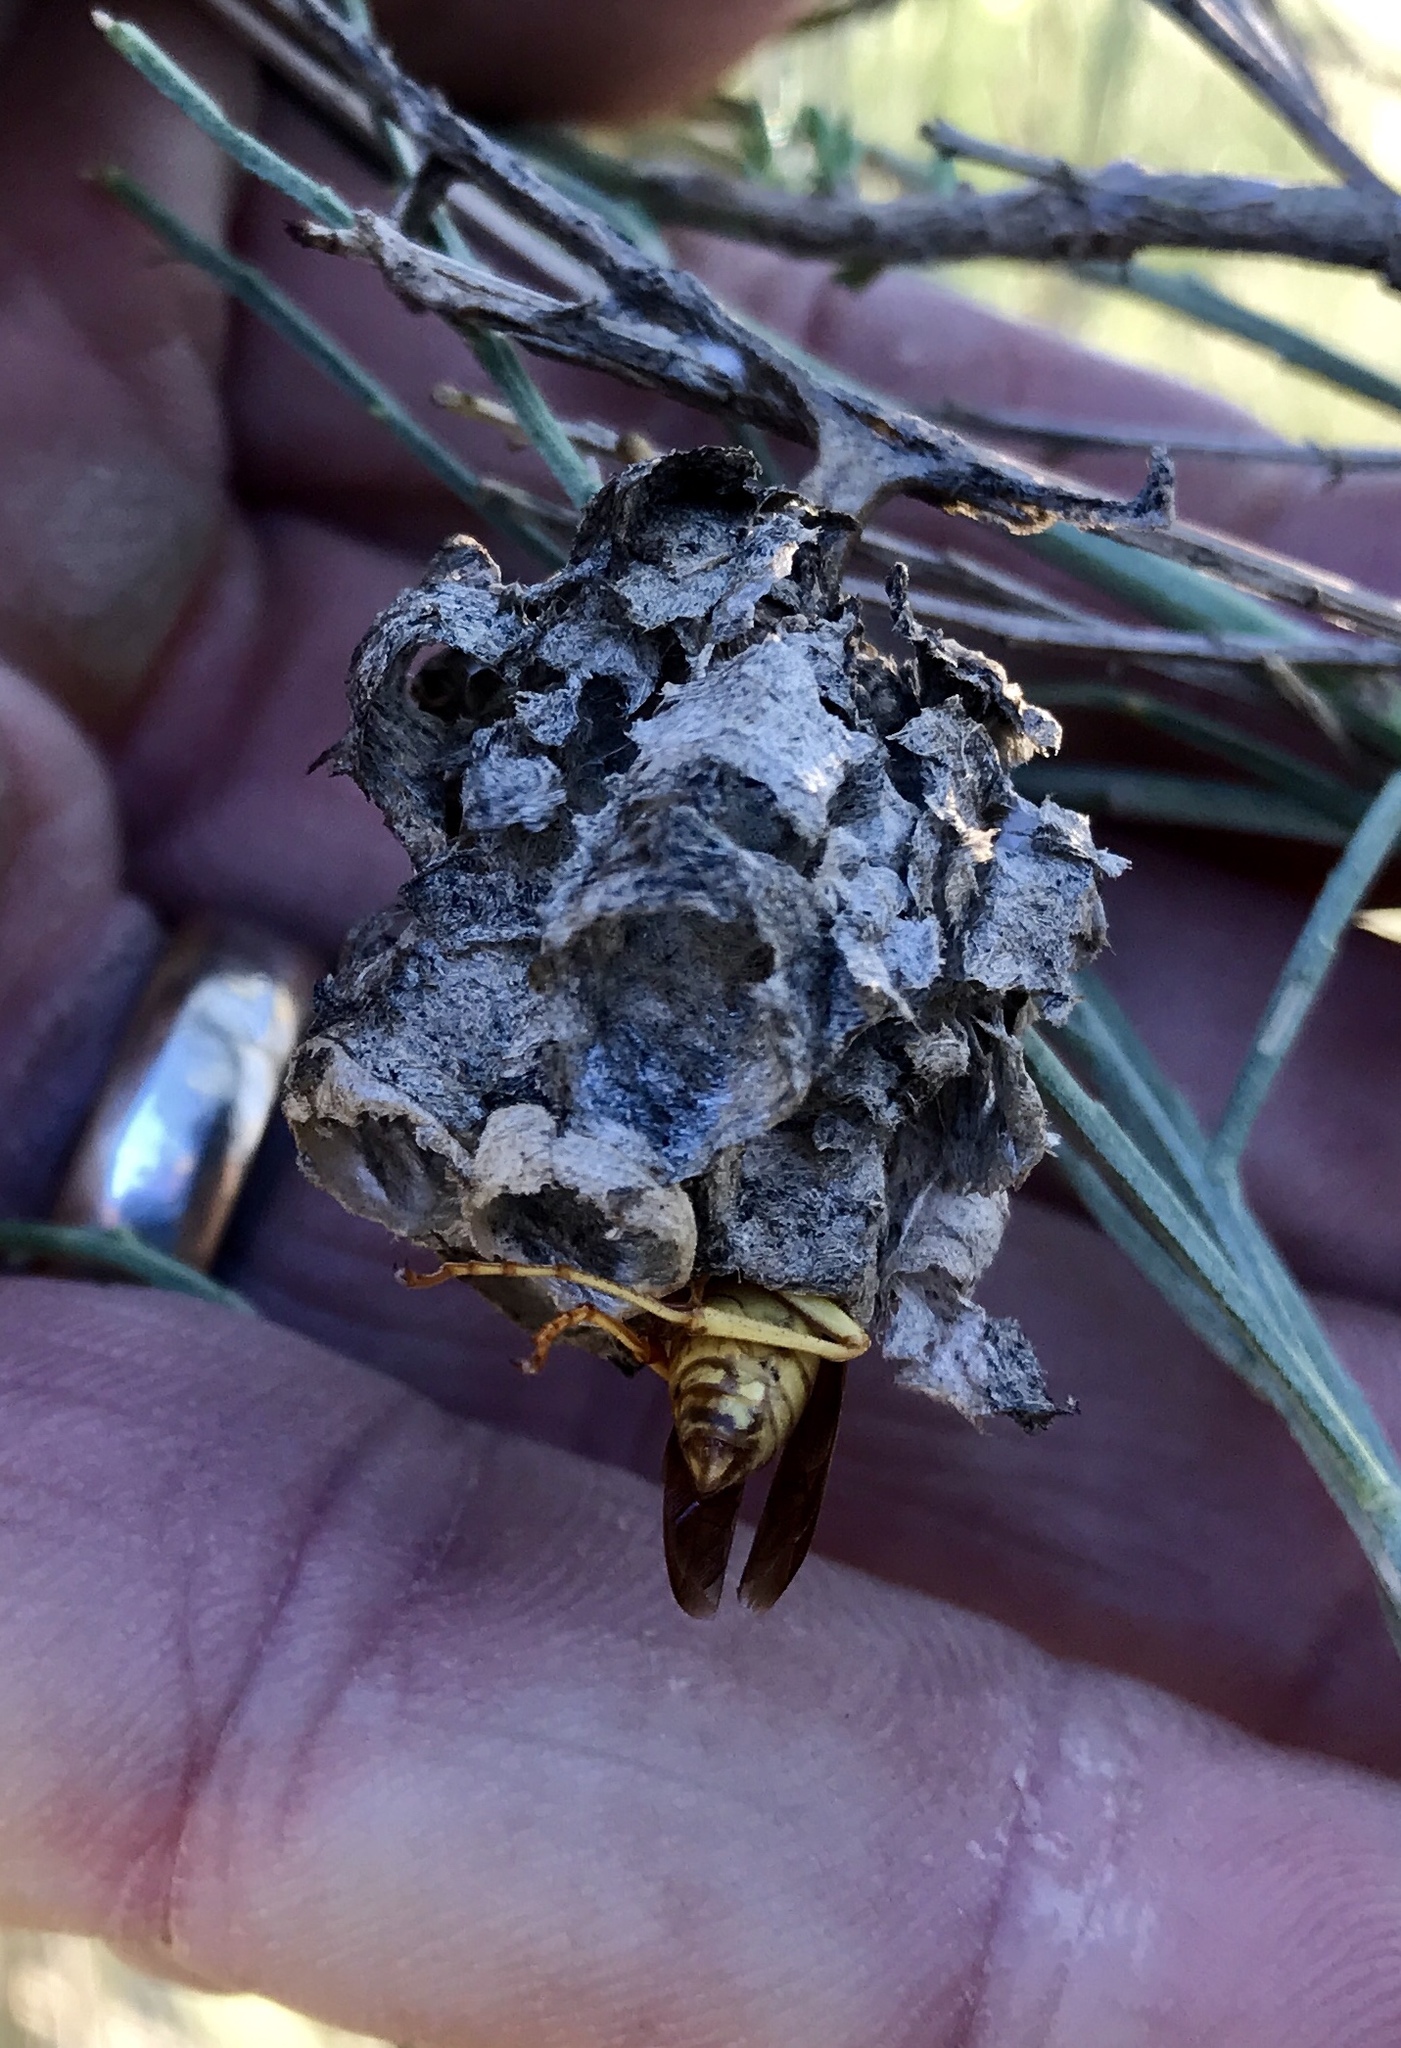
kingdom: Animalia
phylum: Arthropoda
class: Insecta
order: Hymenoptera
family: Eumenidae
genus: Polistes
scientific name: Polistes
